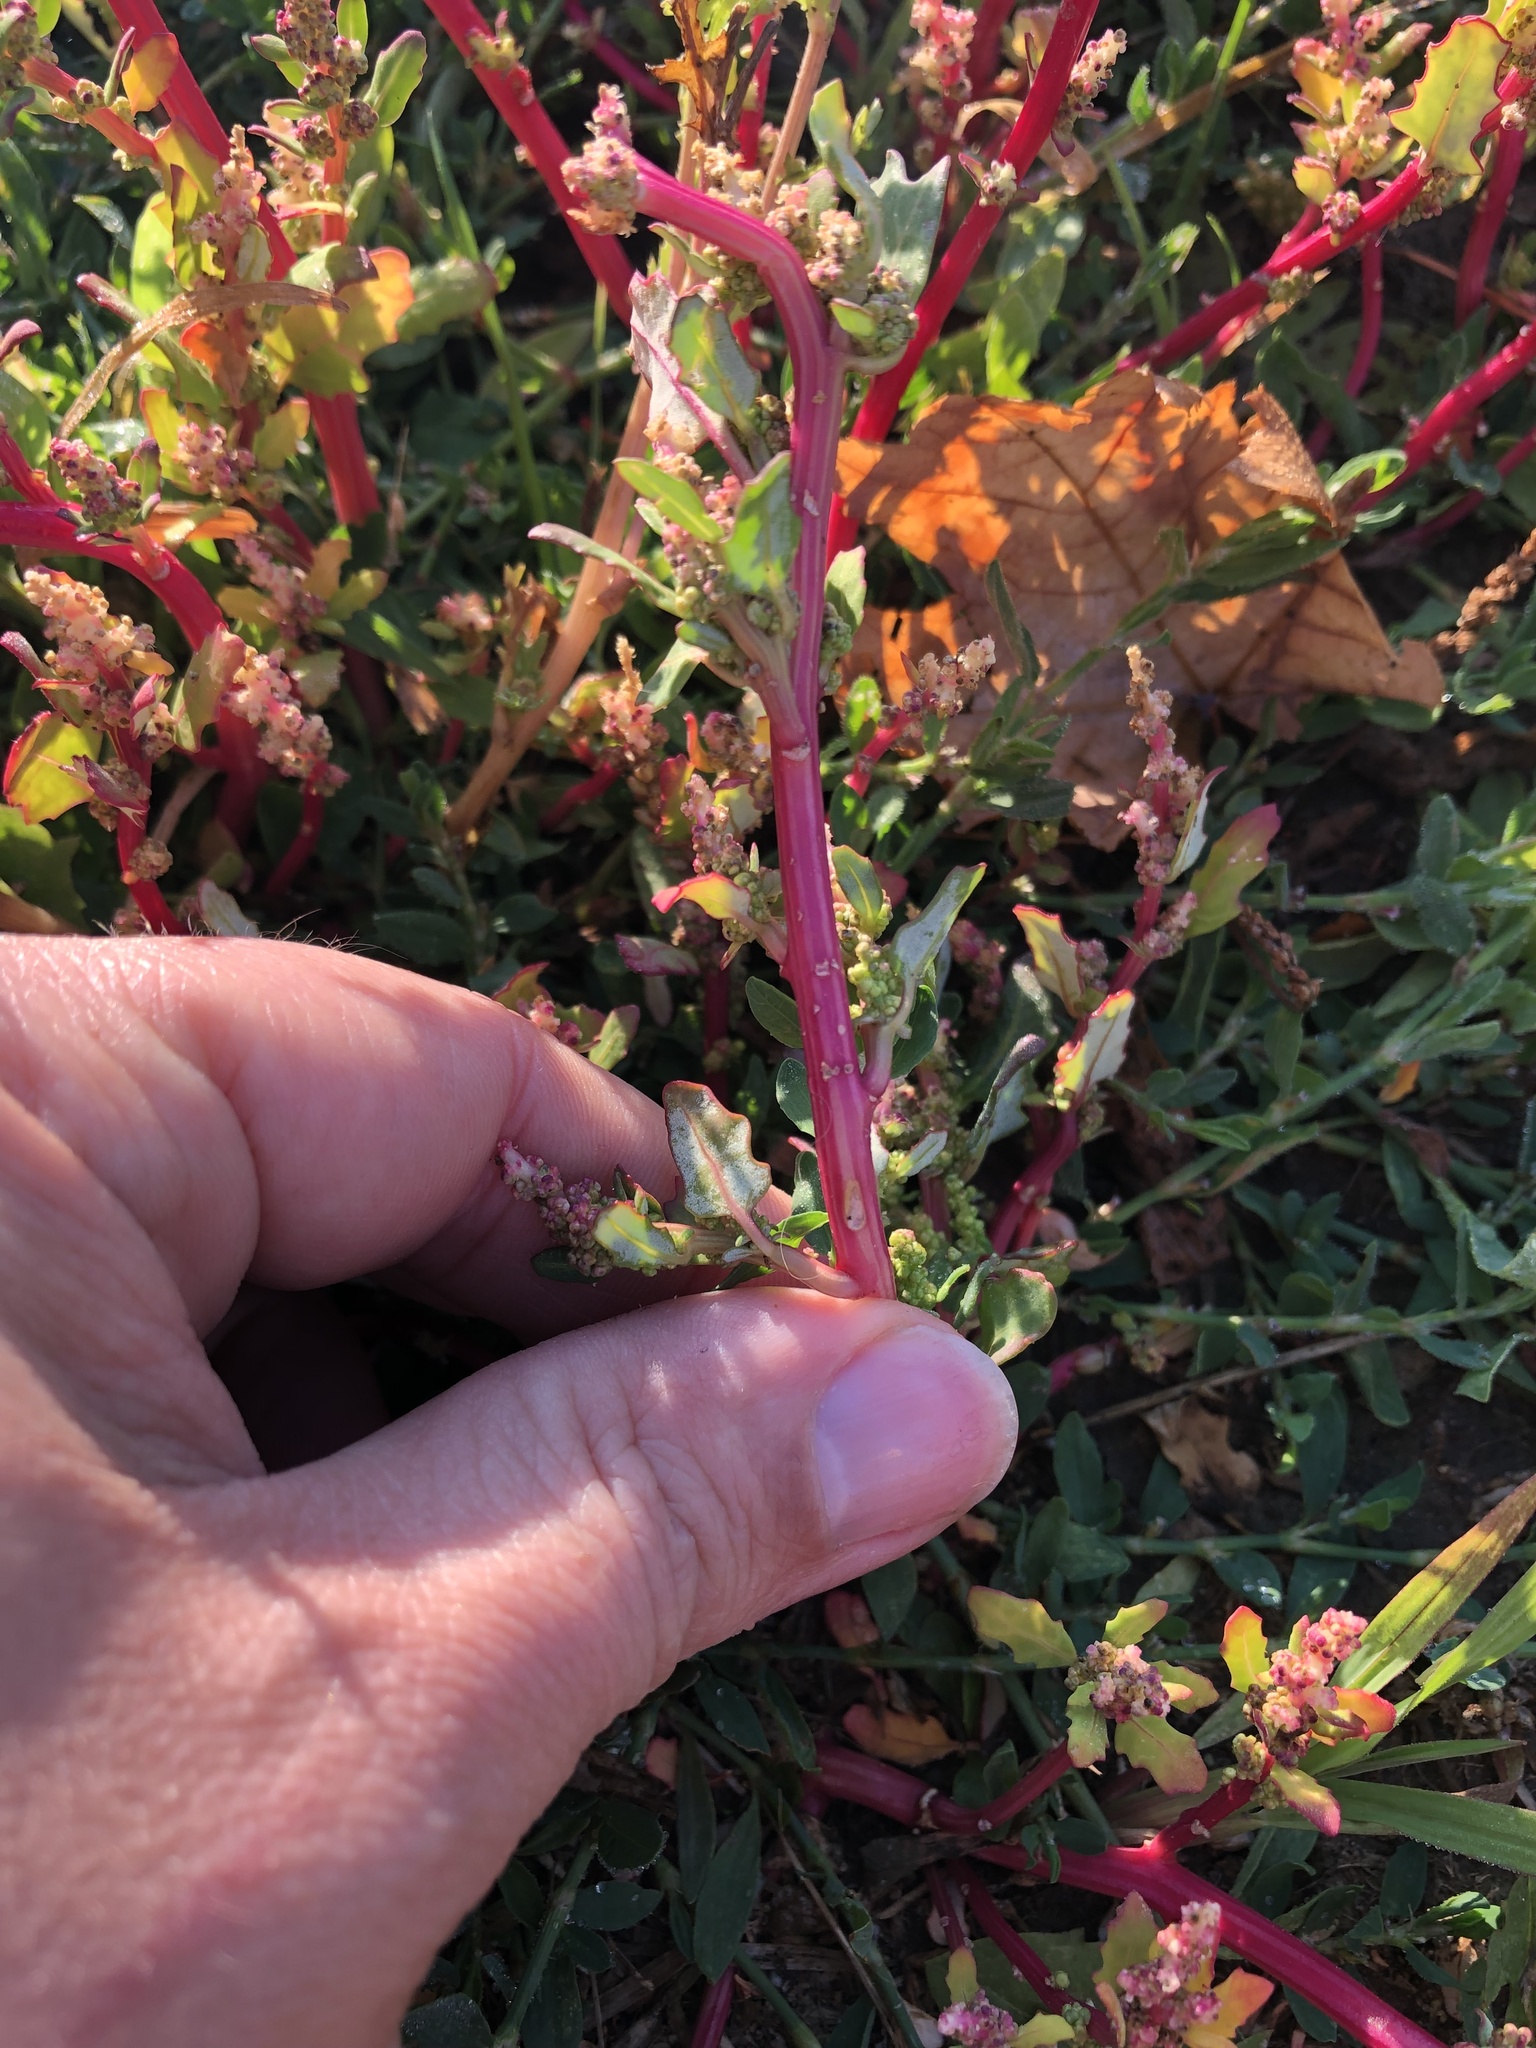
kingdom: Plantae
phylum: Tracheophyta
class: Magnoliopsida
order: Caryophyllales
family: Amaranthaceae
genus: Oxybasis
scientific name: Oxybasis glauca
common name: Glaucous goosefoot
